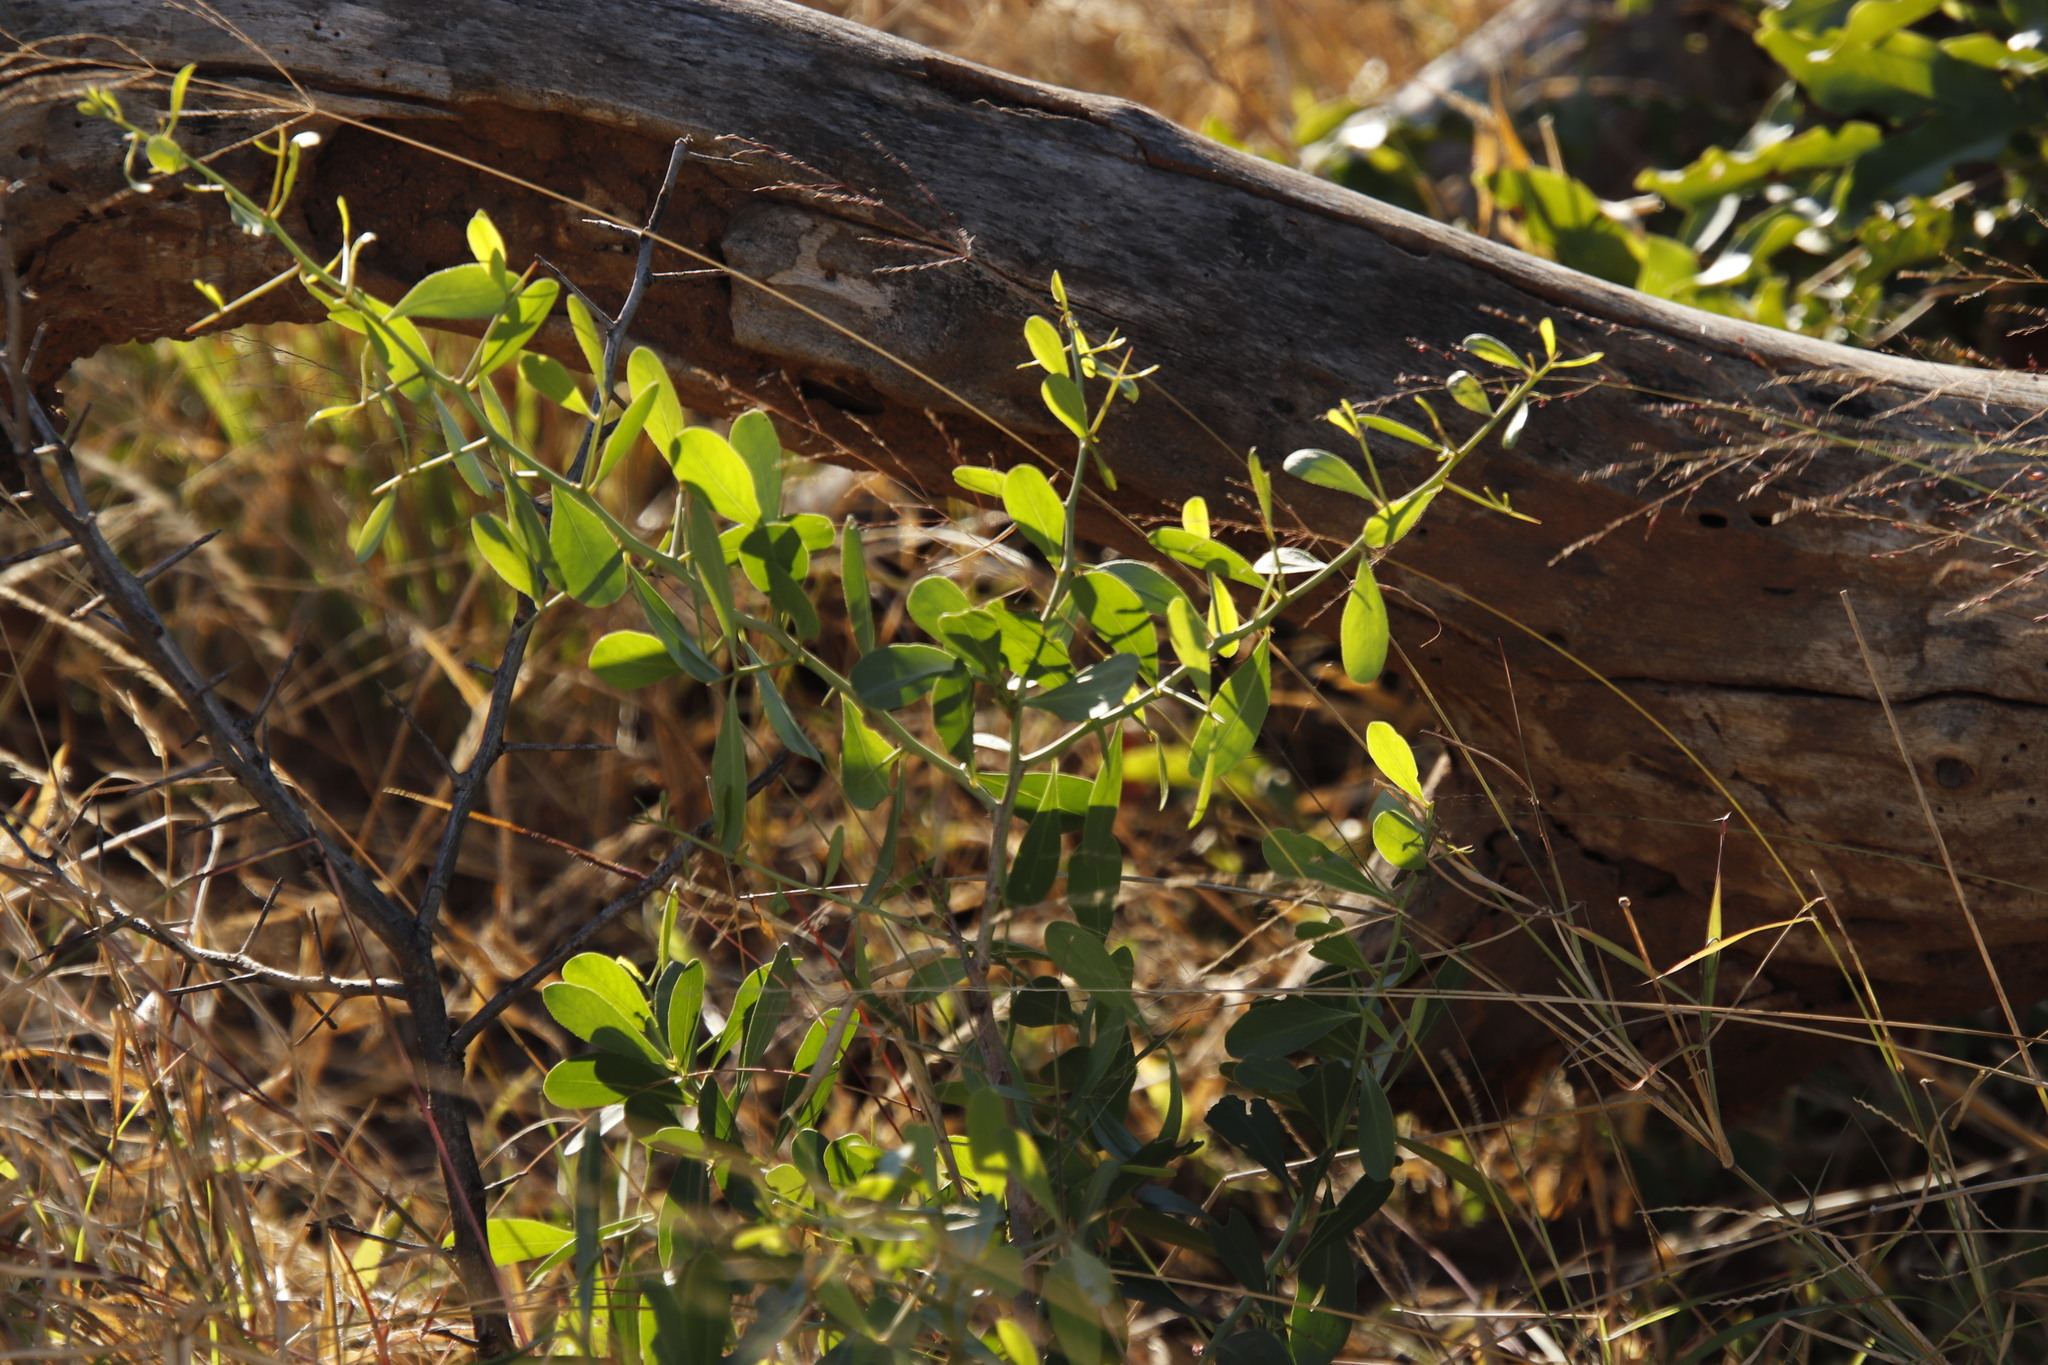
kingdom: Plantae
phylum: Tracheophyta
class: Magnoliopsida
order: Celastrales
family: Celastraceae
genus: Gymnosporia
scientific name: Gymnosporia senegalensis
